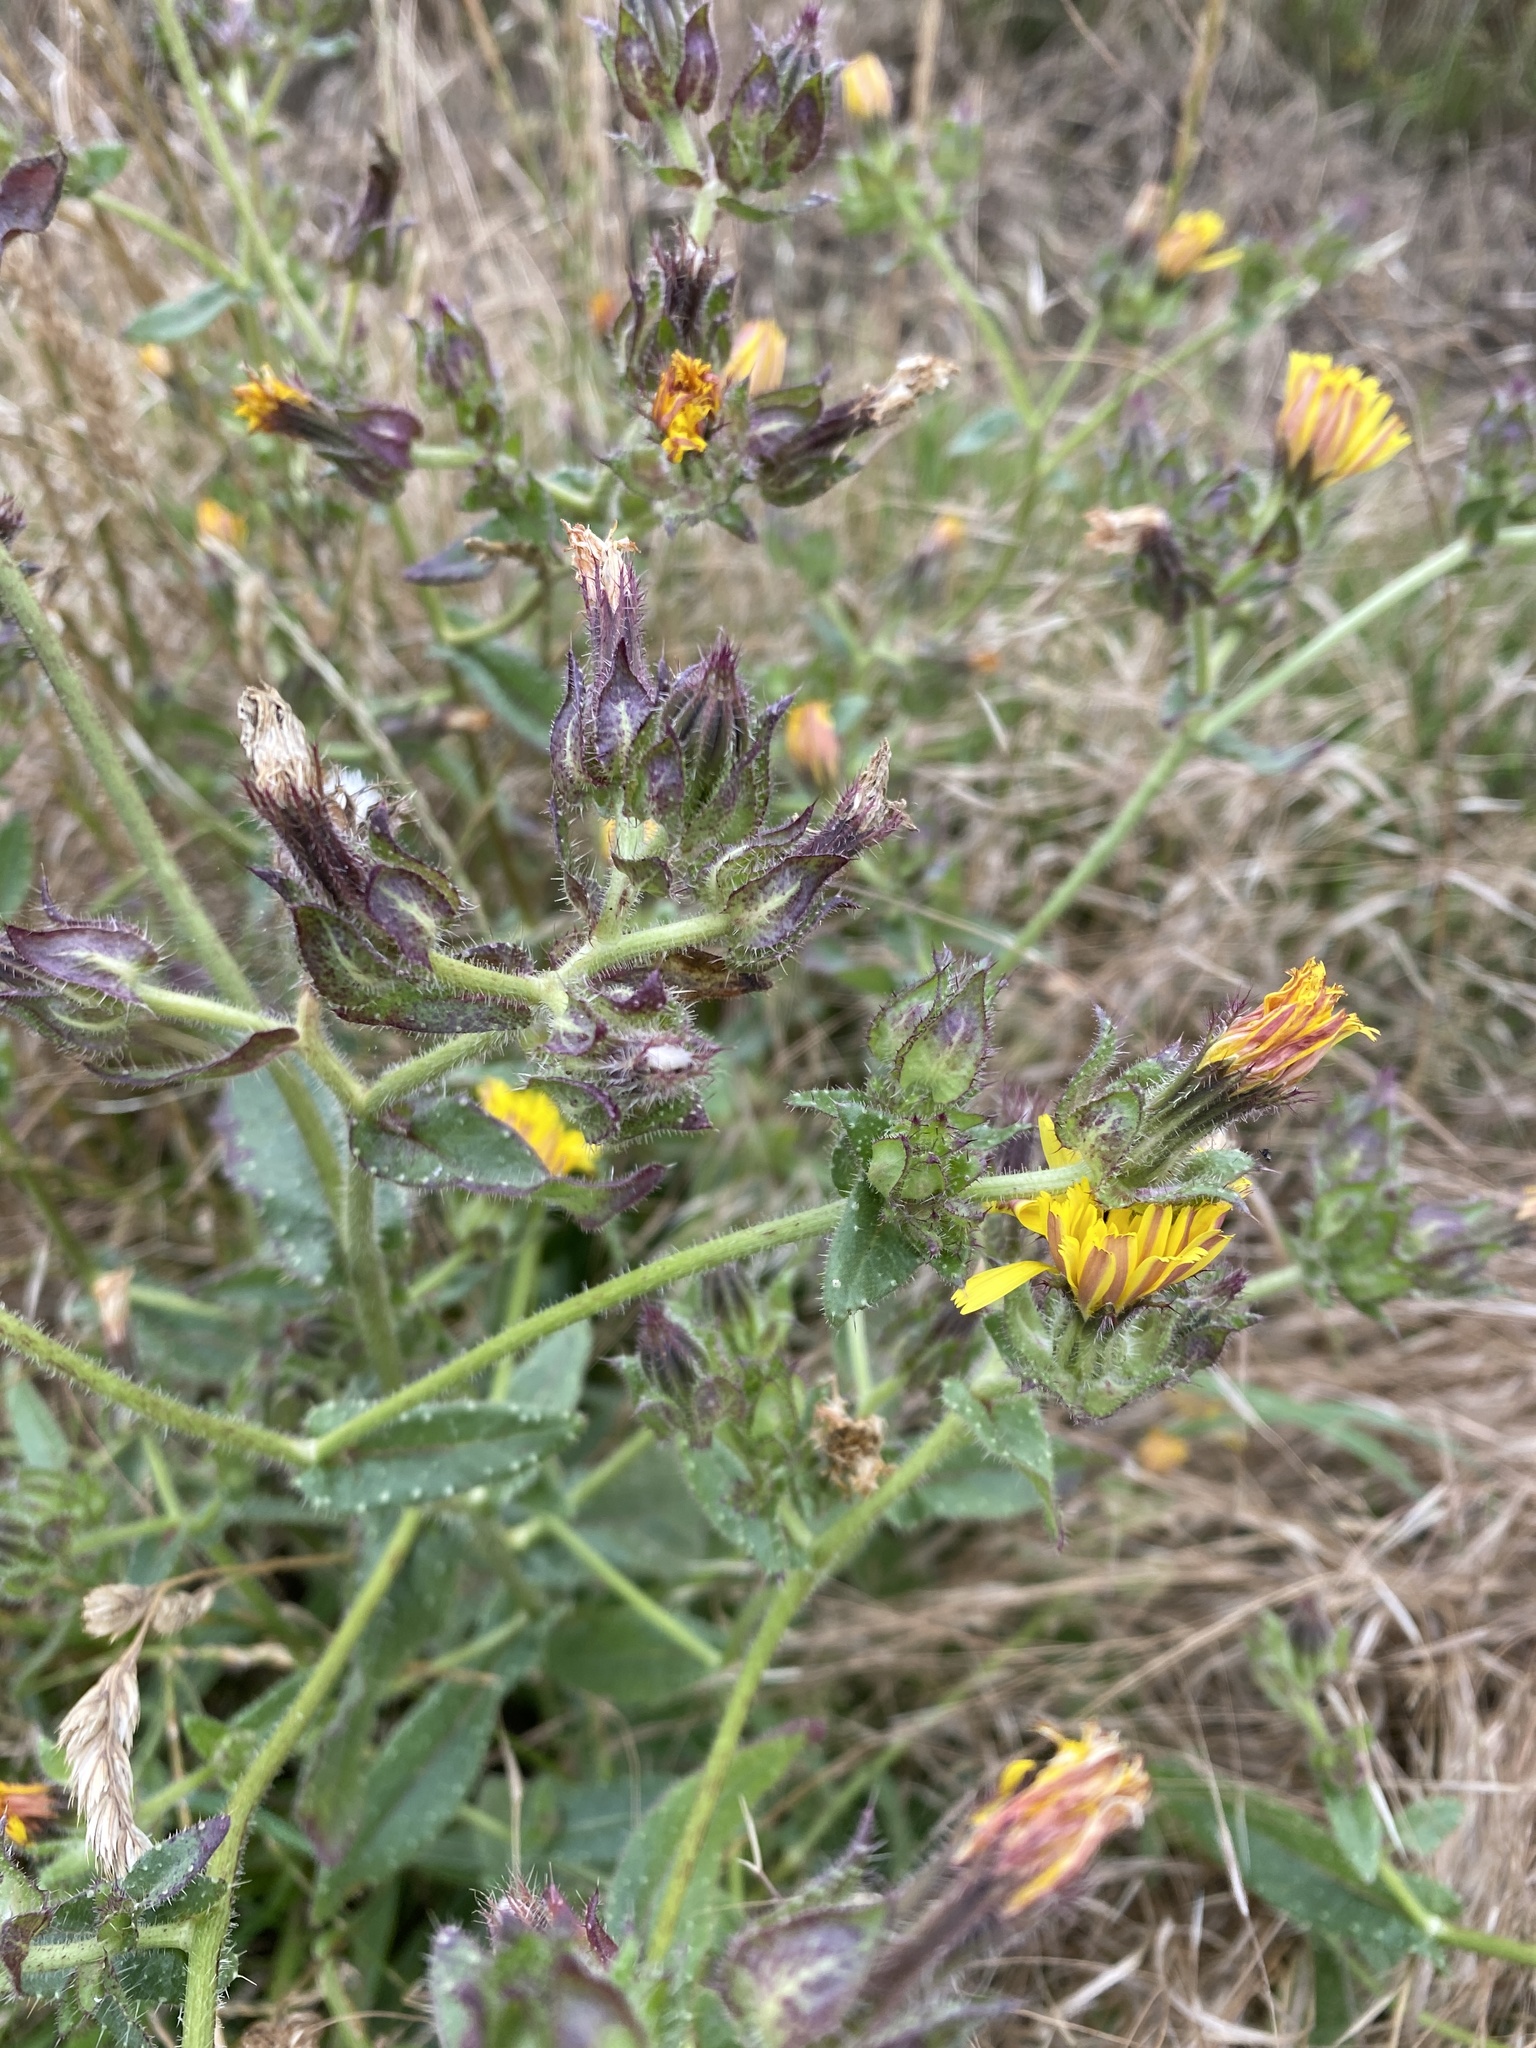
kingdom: Plantae
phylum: Tracheophyta
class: Magnoliopsida
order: Asterales
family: Asteraceae
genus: Helminthotheca
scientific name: Helminthotheca echioides
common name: Ox-tongue
